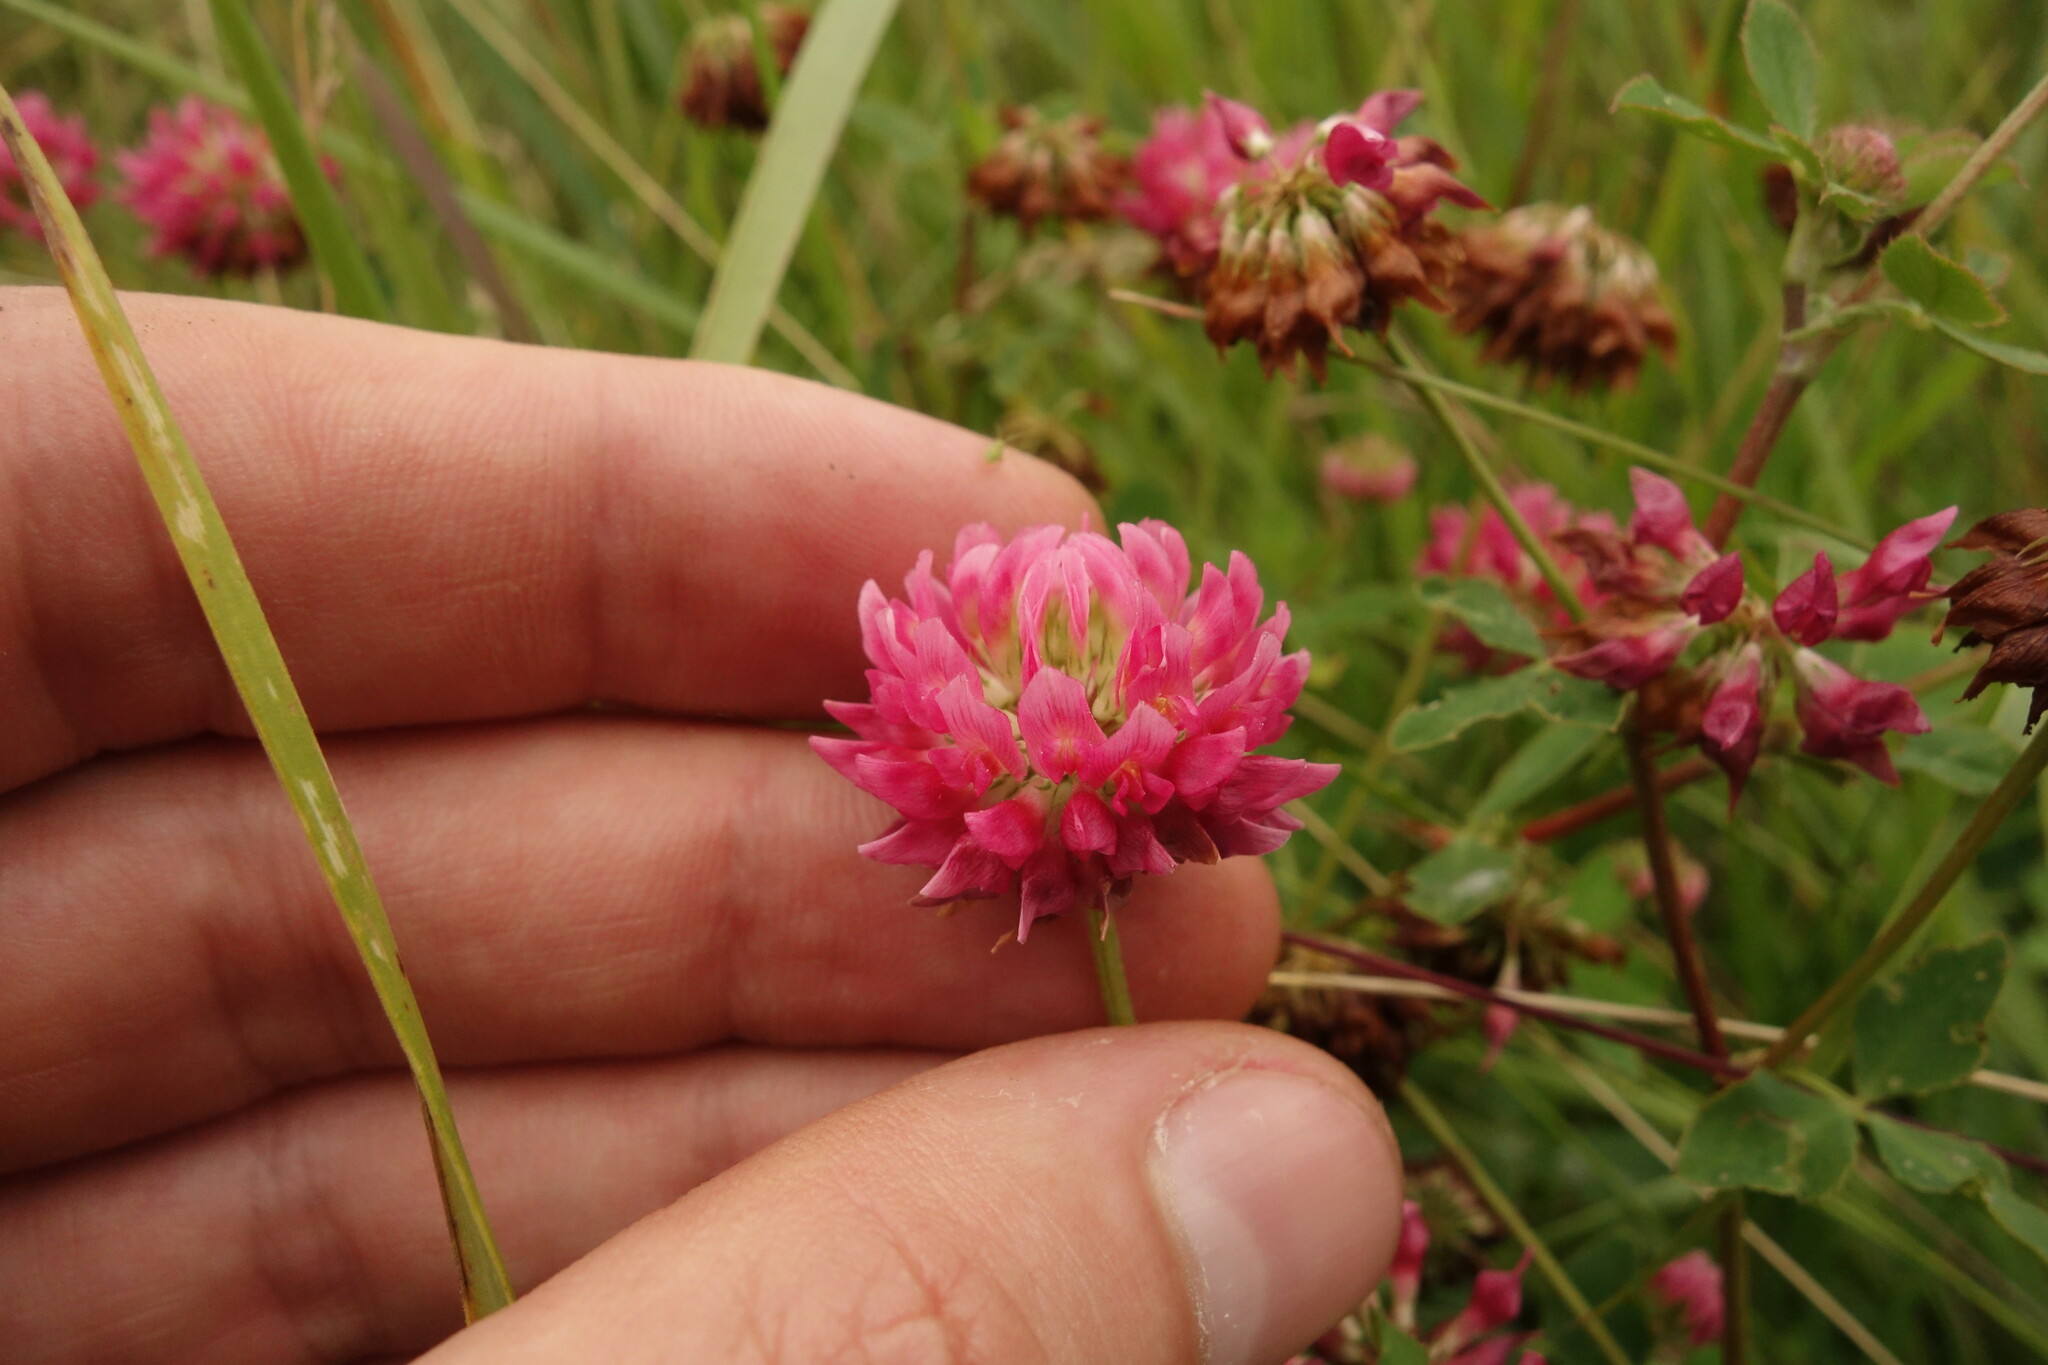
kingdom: Plantae
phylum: Tracheophyta
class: Magnoliopsida
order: Fabales
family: Fabaceae
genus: Trifolium
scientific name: Trifolium hybridum
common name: Alsike clover
